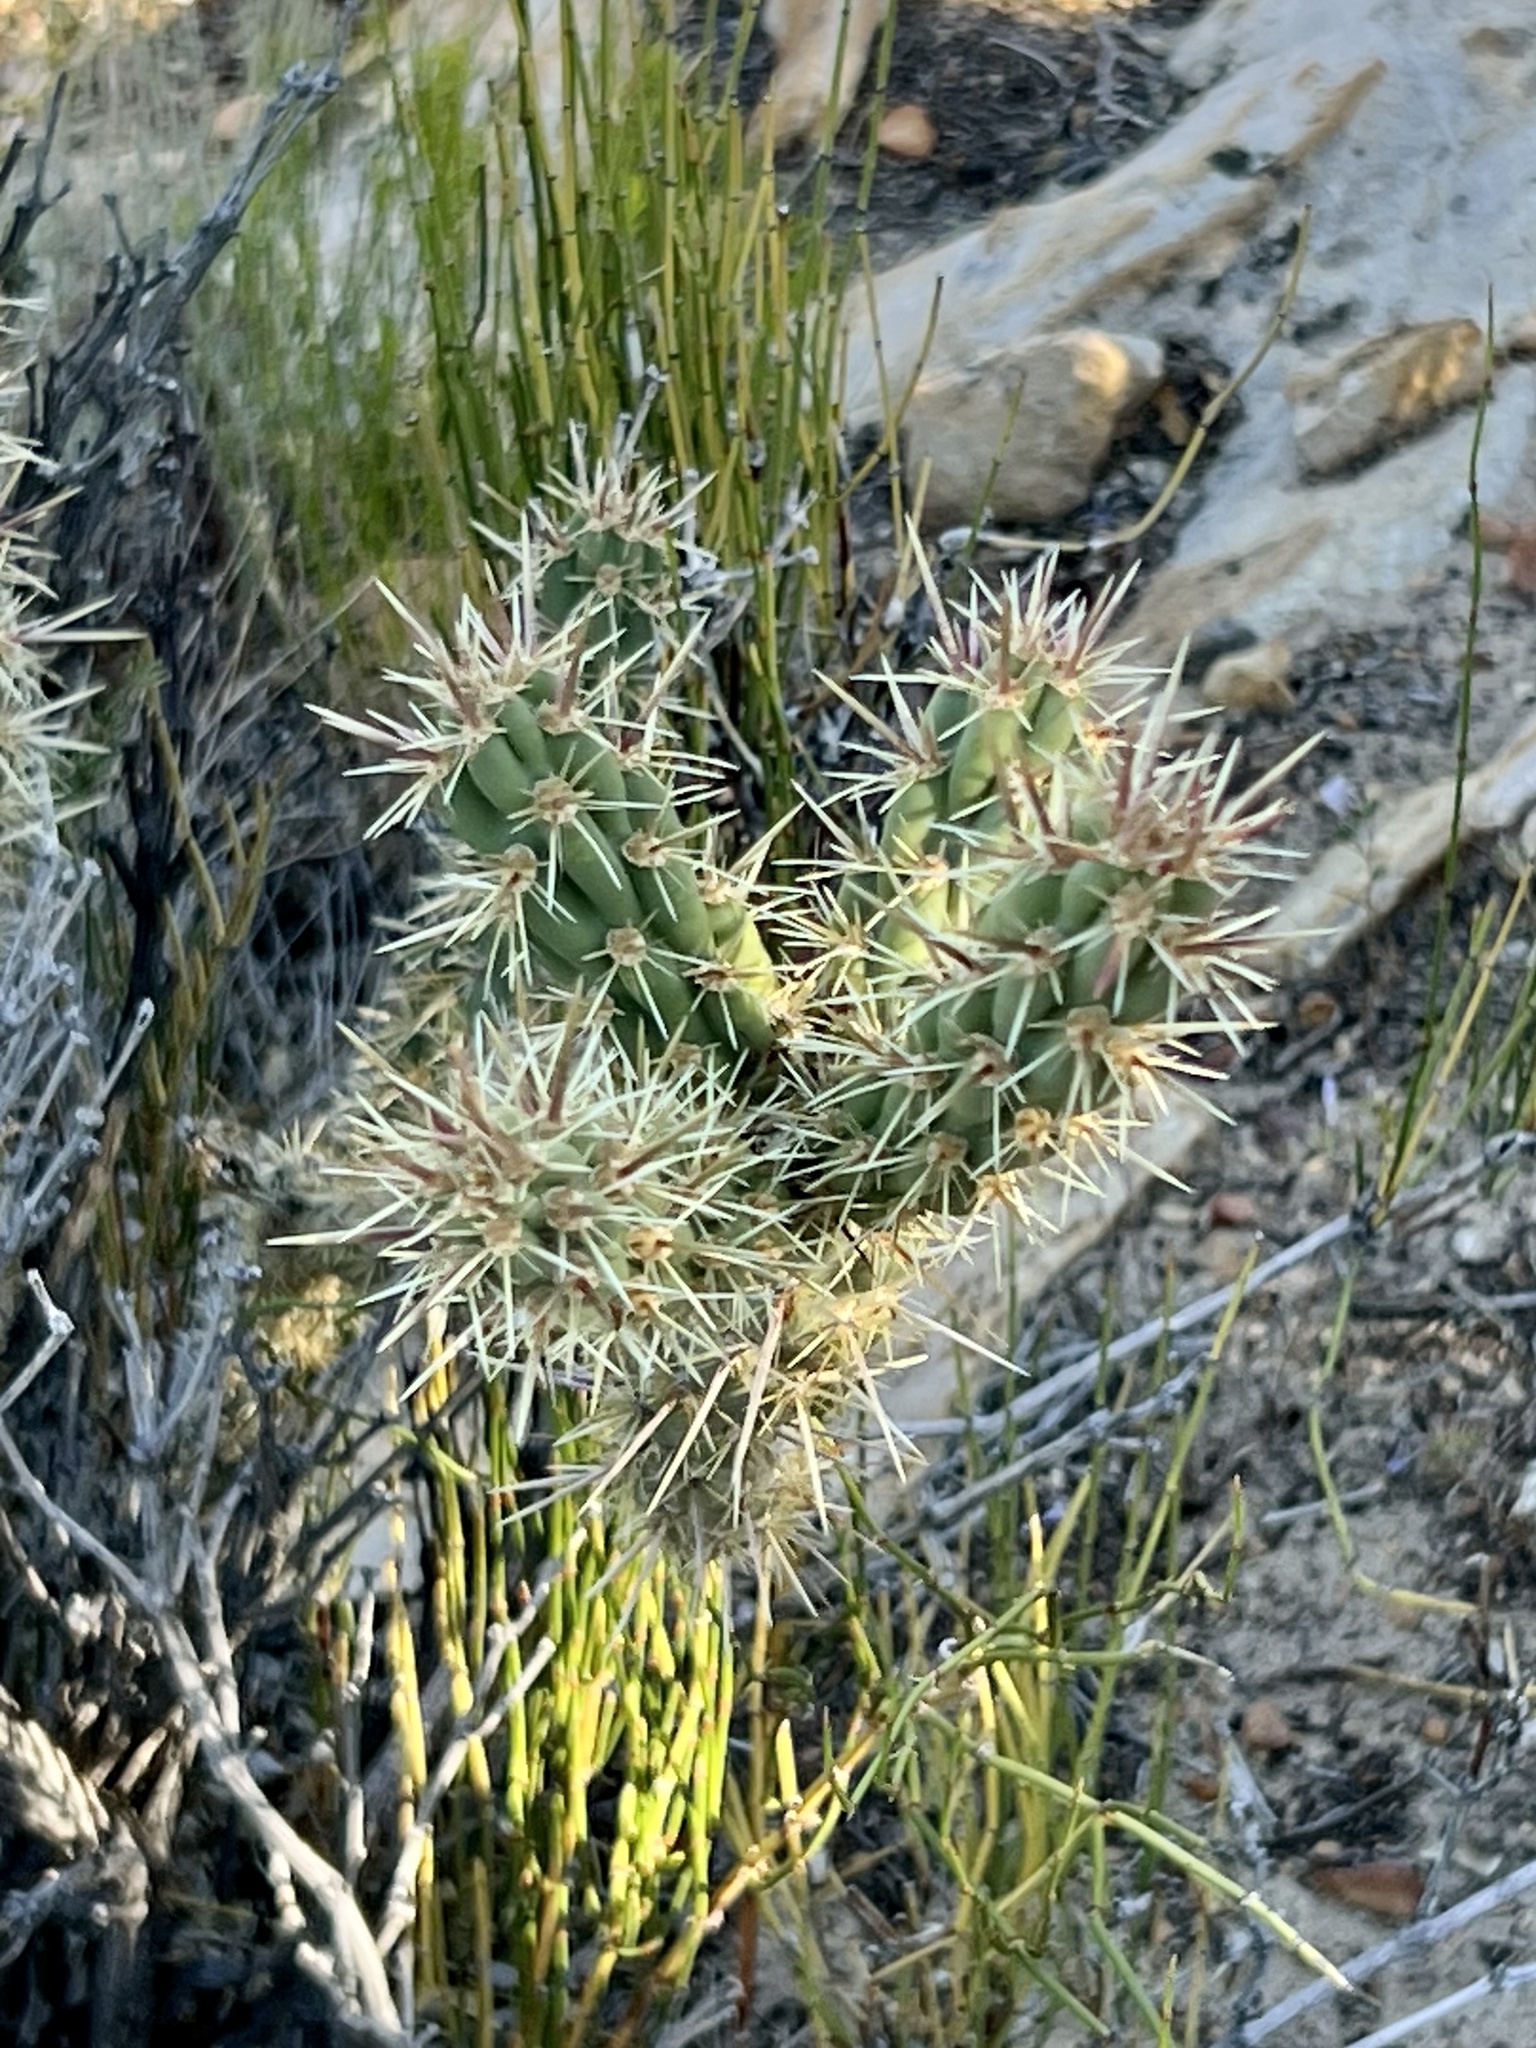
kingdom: Plantae
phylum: Tracheophyta
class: Magnoliopsida
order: Caryophyllales
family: Cactaceae
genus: Echinocereus
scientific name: Echinocereus engelmannii
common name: Engelmann's hedgehog cactus
